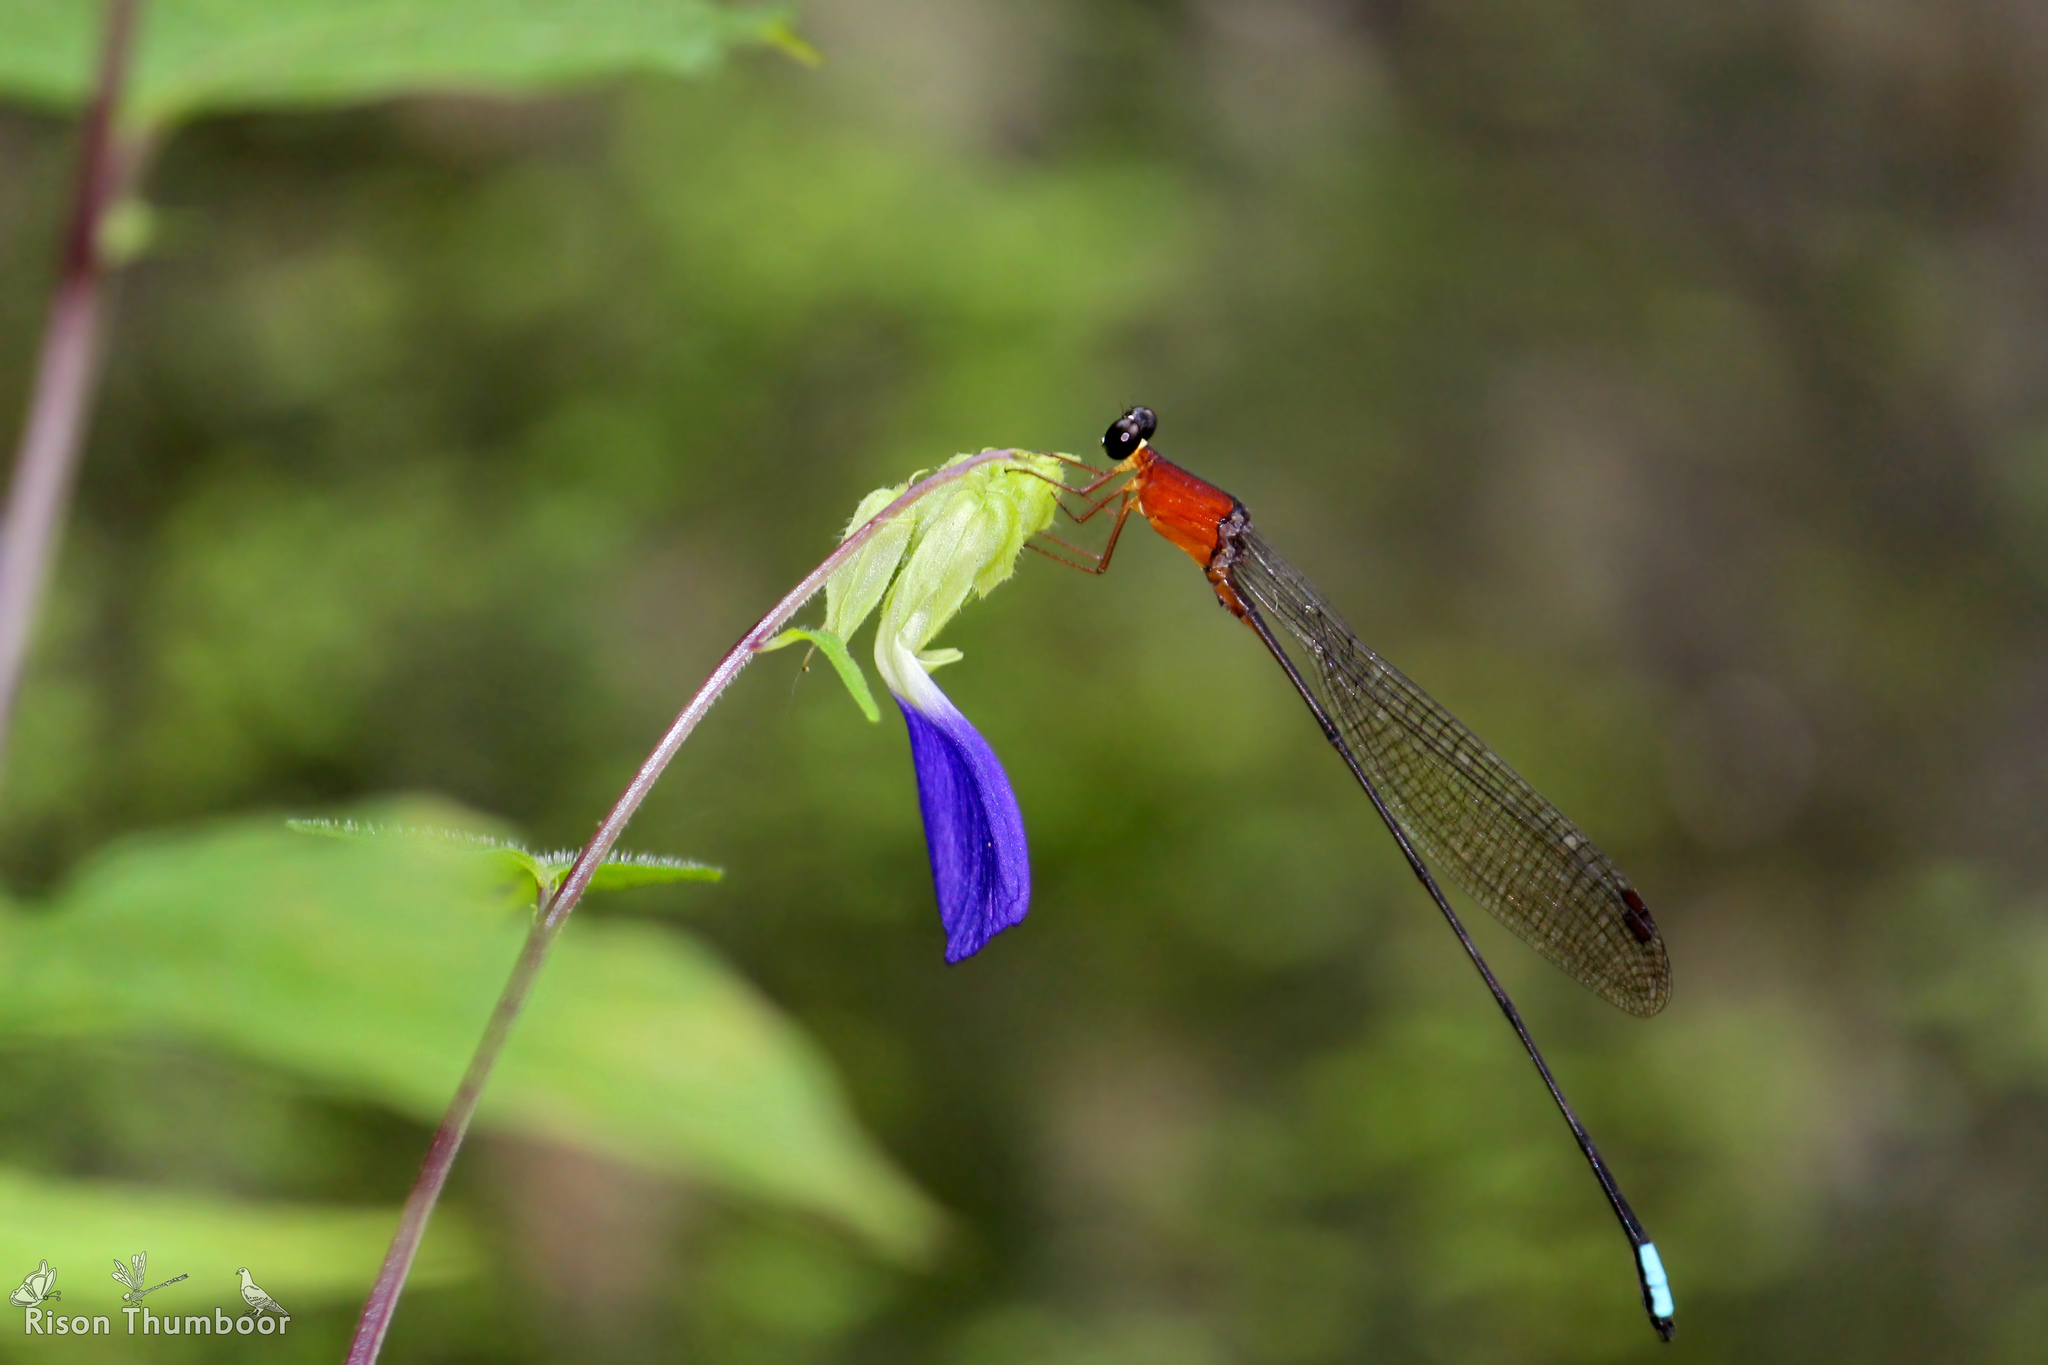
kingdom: Animalia
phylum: Arthropoda
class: Insecta
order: Odonata
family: Platystictidae
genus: Indosticta
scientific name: Indosticta deccanensis
